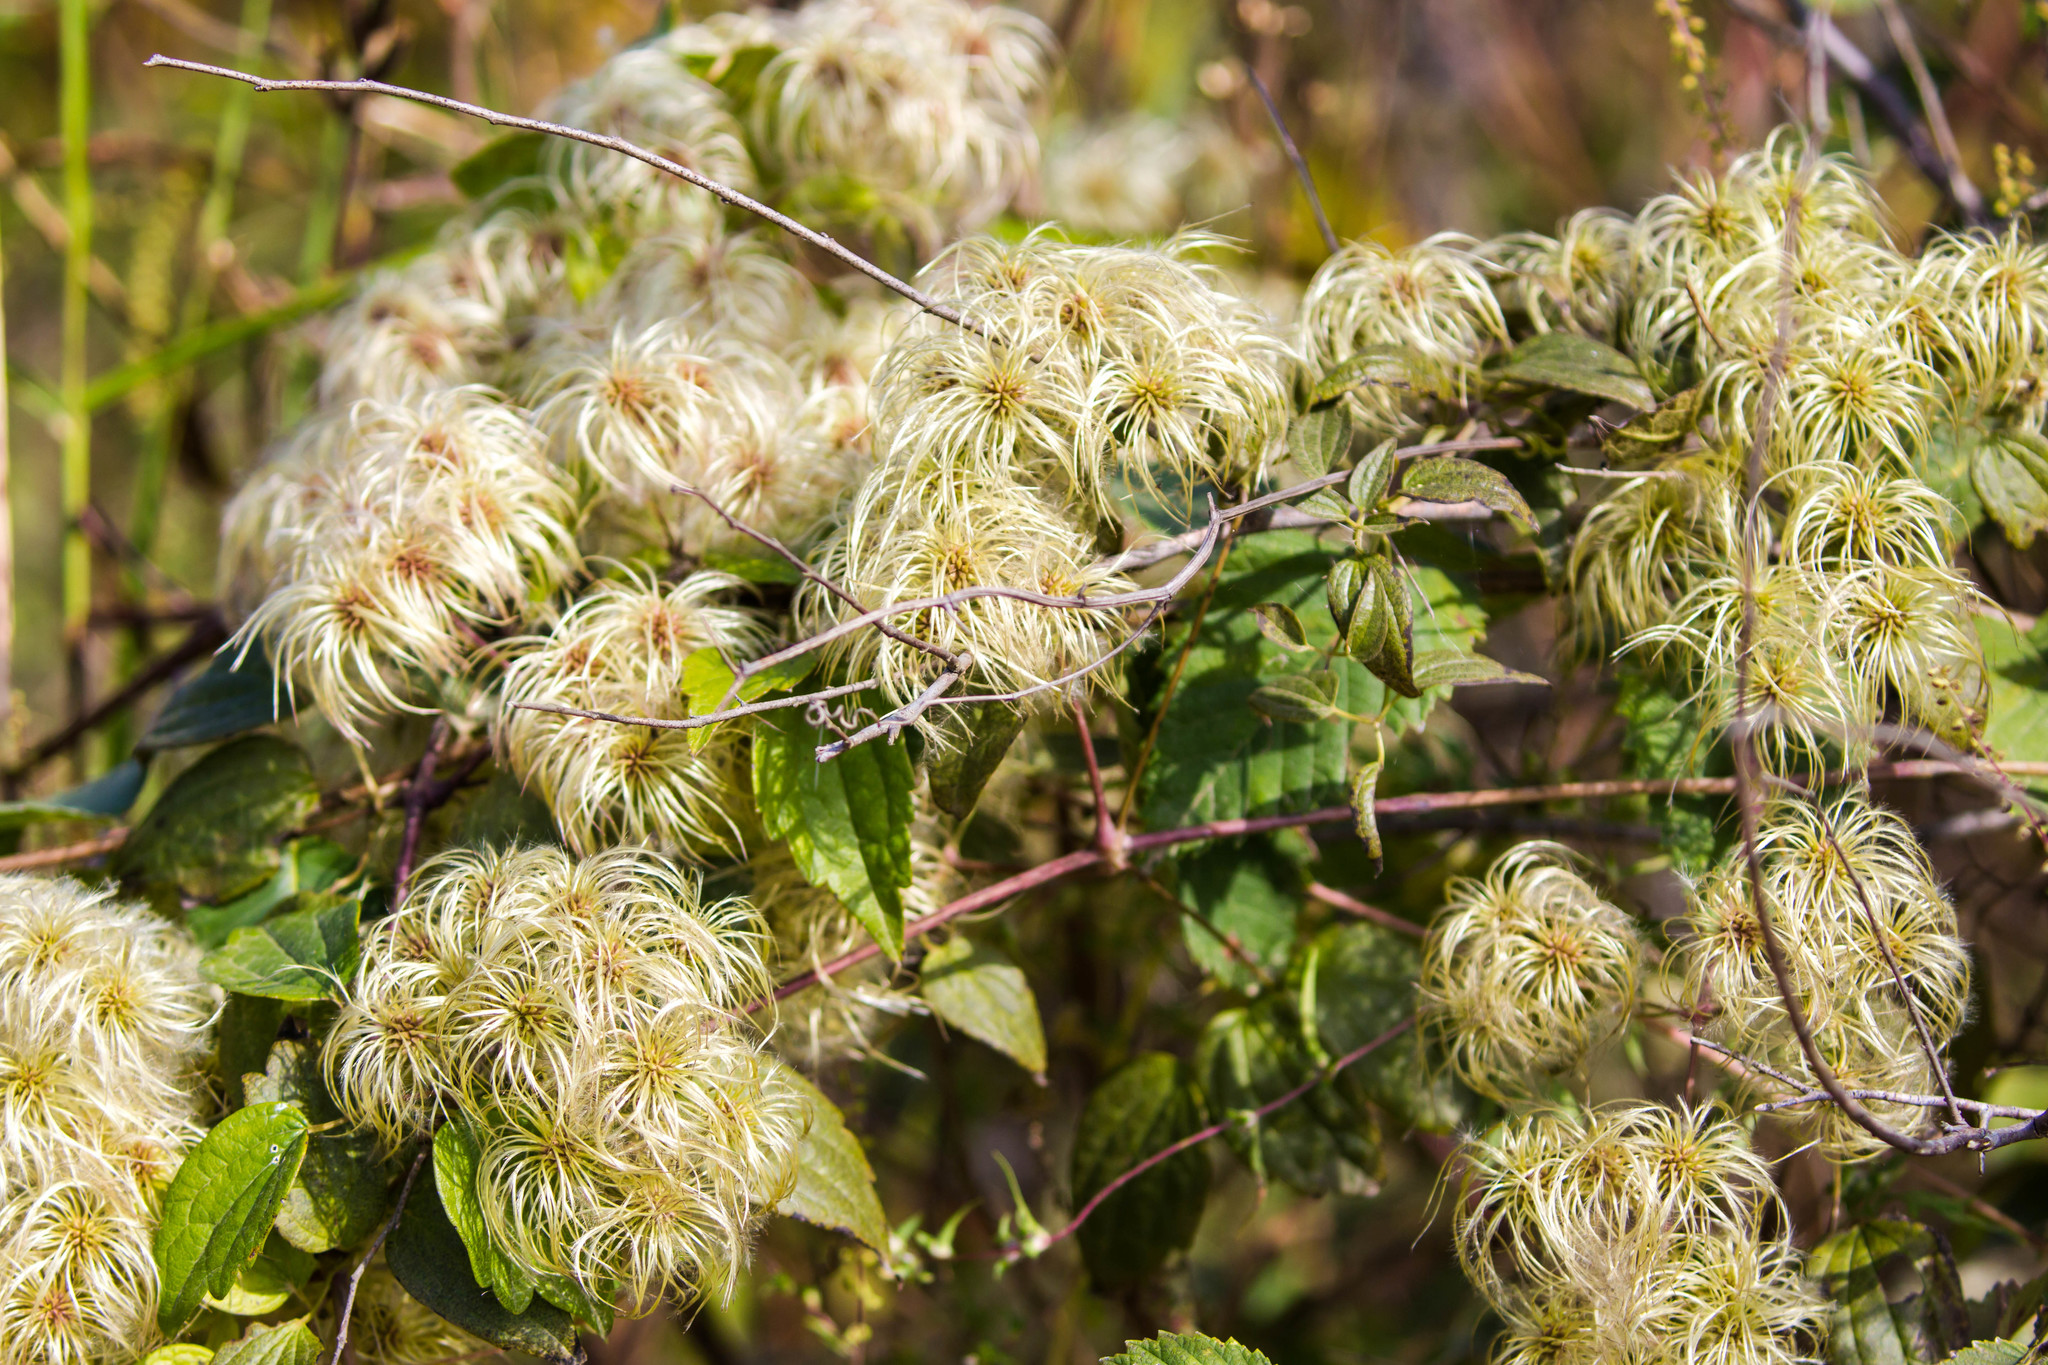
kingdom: Plantae
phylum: Tracheophyta
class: Magnoliopsida
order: Ranunculales
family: Ranunculaceae
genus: Clematis
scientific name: Clematis virginiana
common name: Virgin's-bower
